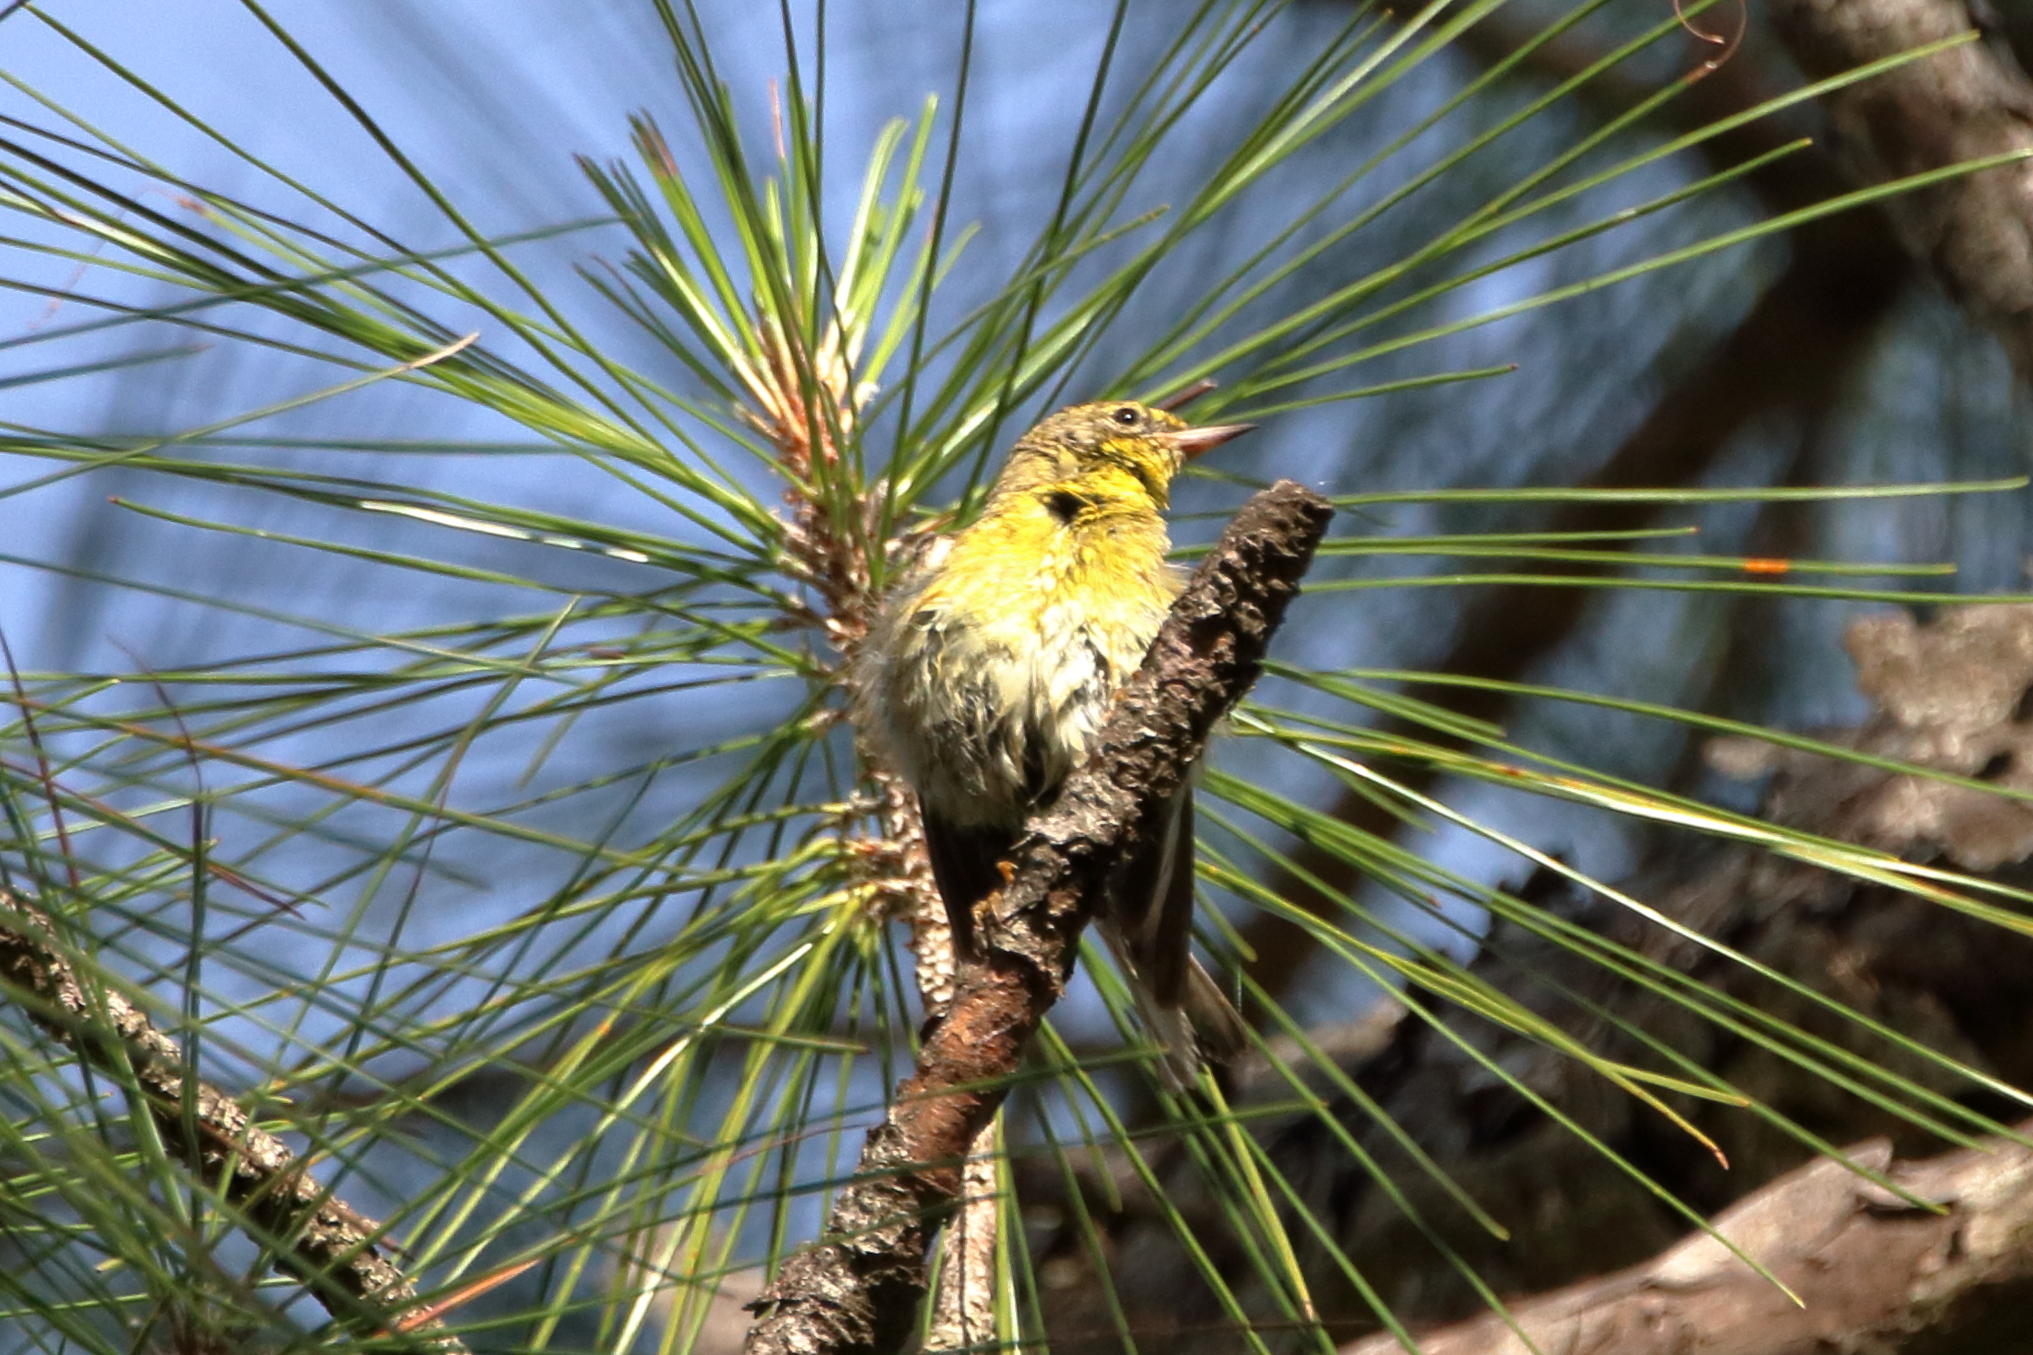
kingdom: Animalia
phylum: Chordata
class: Aves
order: Passeriformes
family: Parulidae
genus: Setophaga
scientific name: Setophaga pinus
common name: Pine warbler
